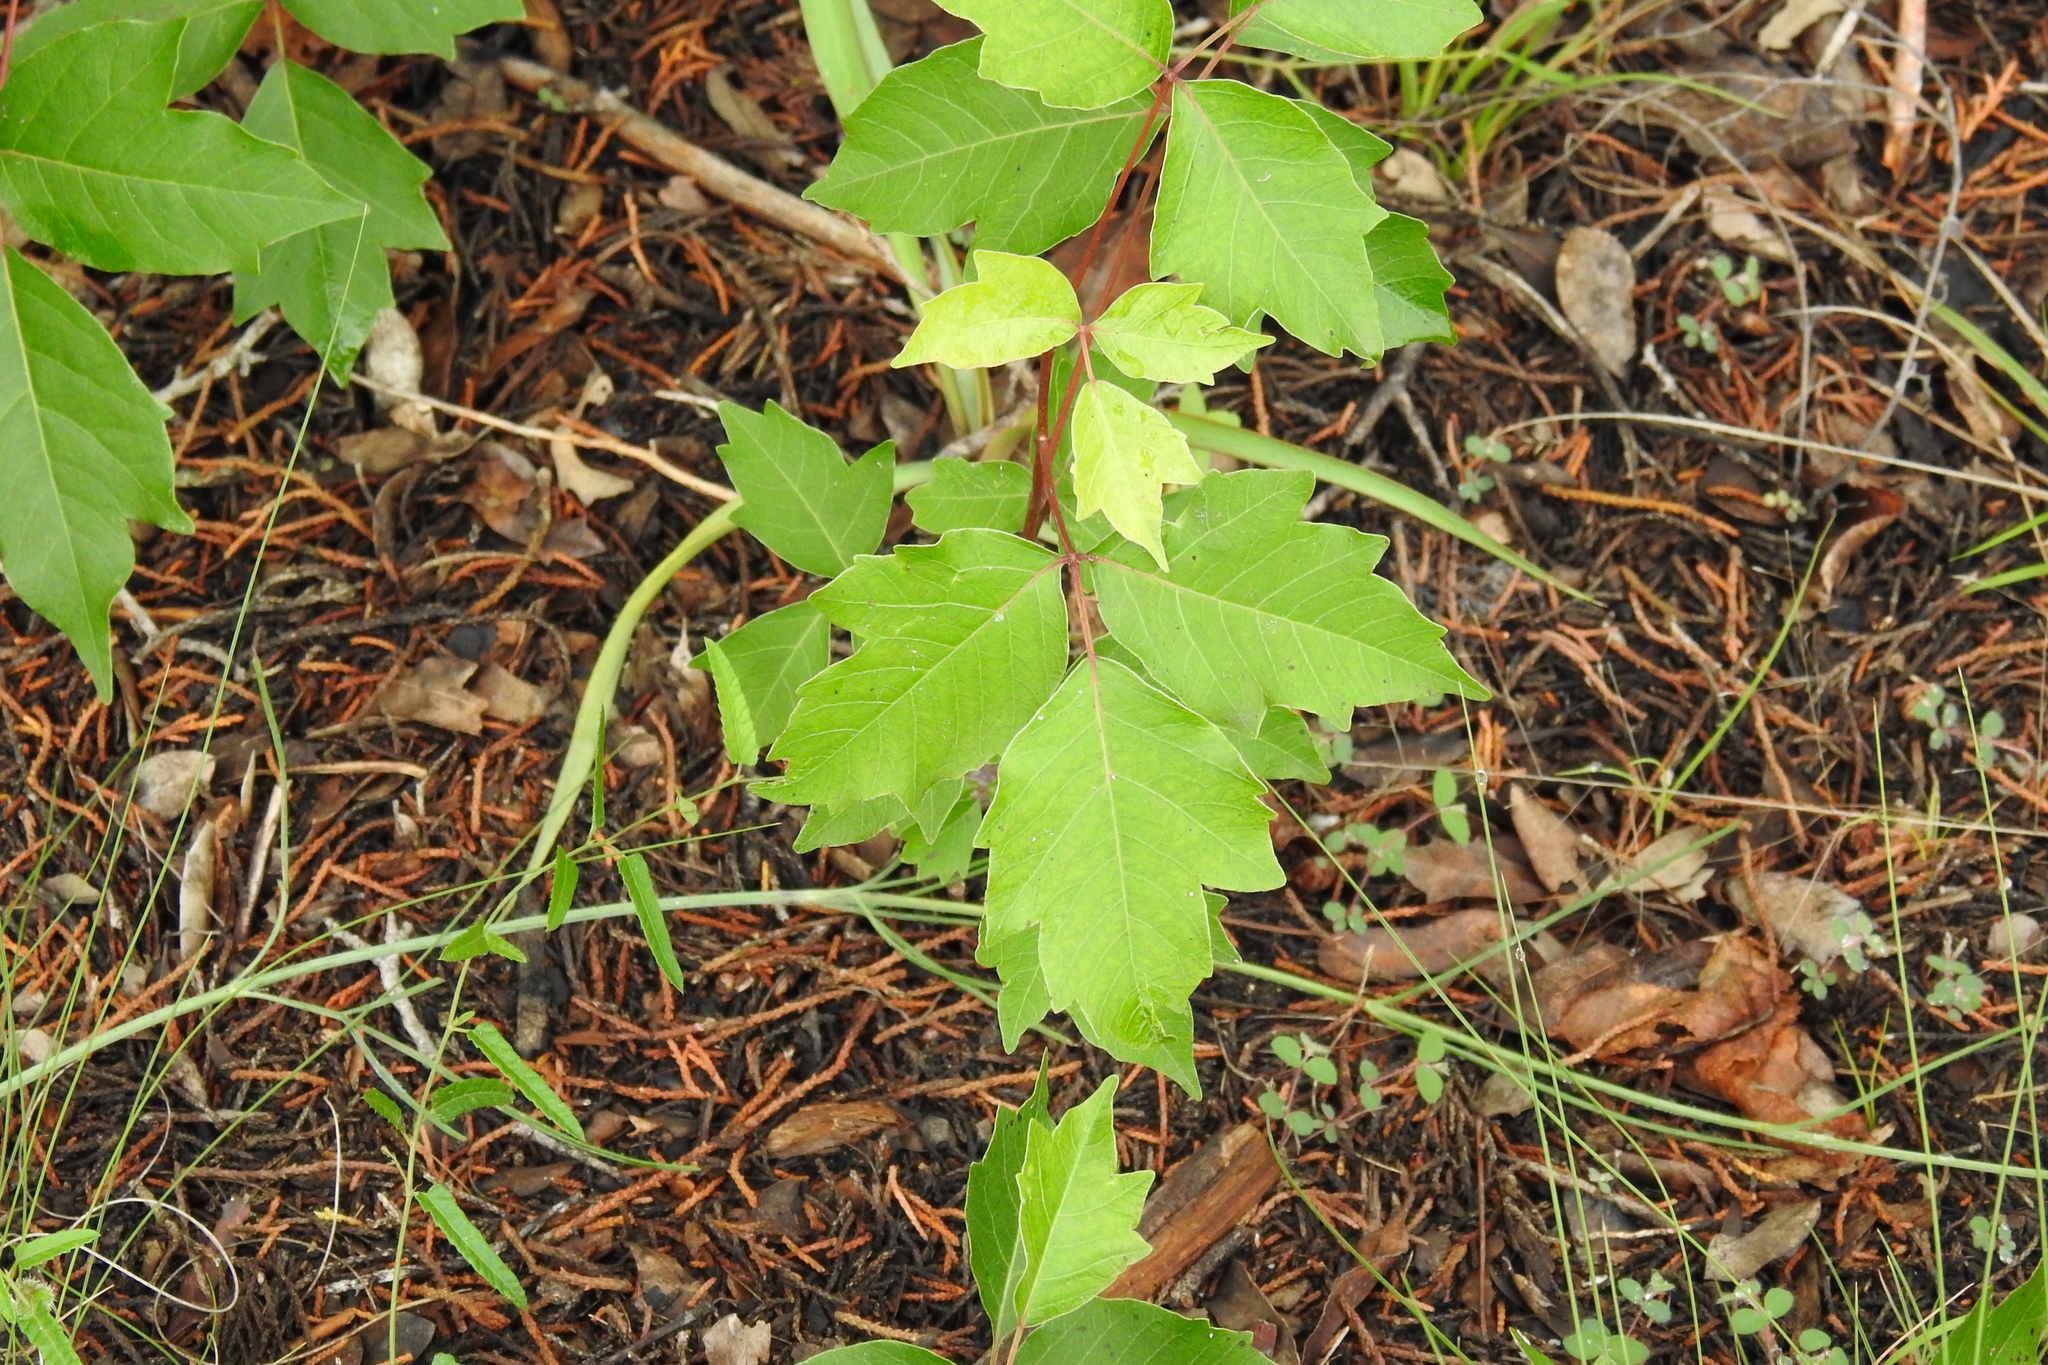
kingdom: Plantae
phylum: Tracheophyta
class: Magnoliopsida
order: Sapindales
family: Anacardiaceae
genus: Toxicodendron
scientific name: Toxicodendron radicans
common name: Poison ivy
